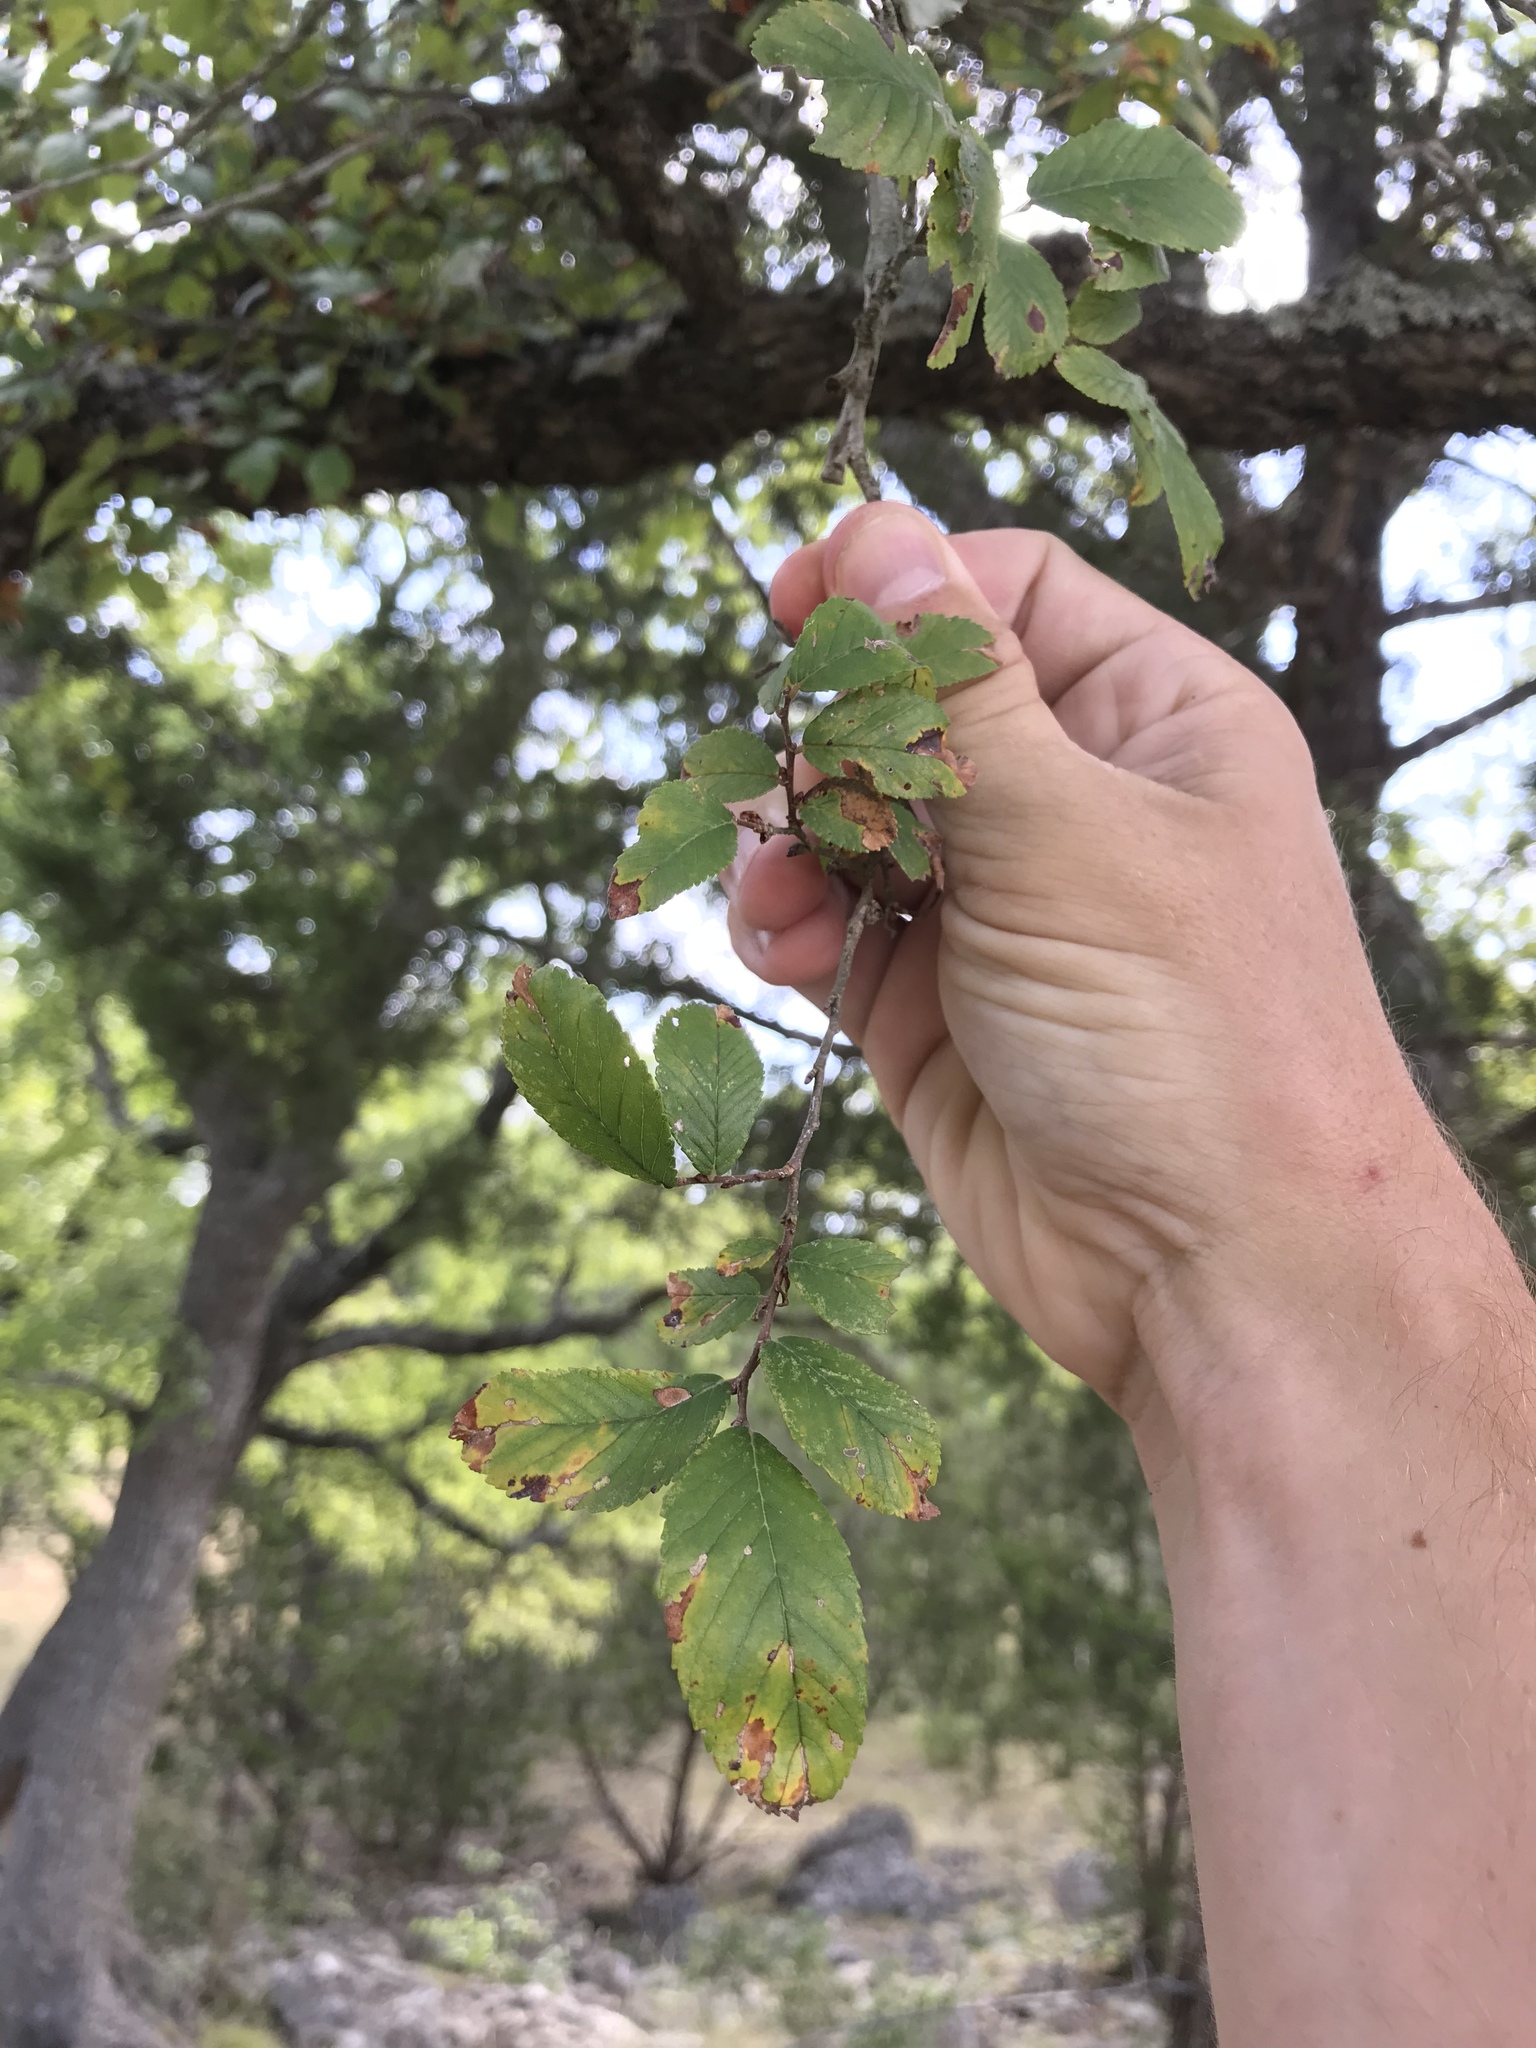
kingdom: Plantae
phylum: Tracheophyta
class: Magnoliopsida
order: Rosales
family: Ulmaceae
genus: Ulmus
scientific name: Ulmus crassifolia
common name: Basket elm
